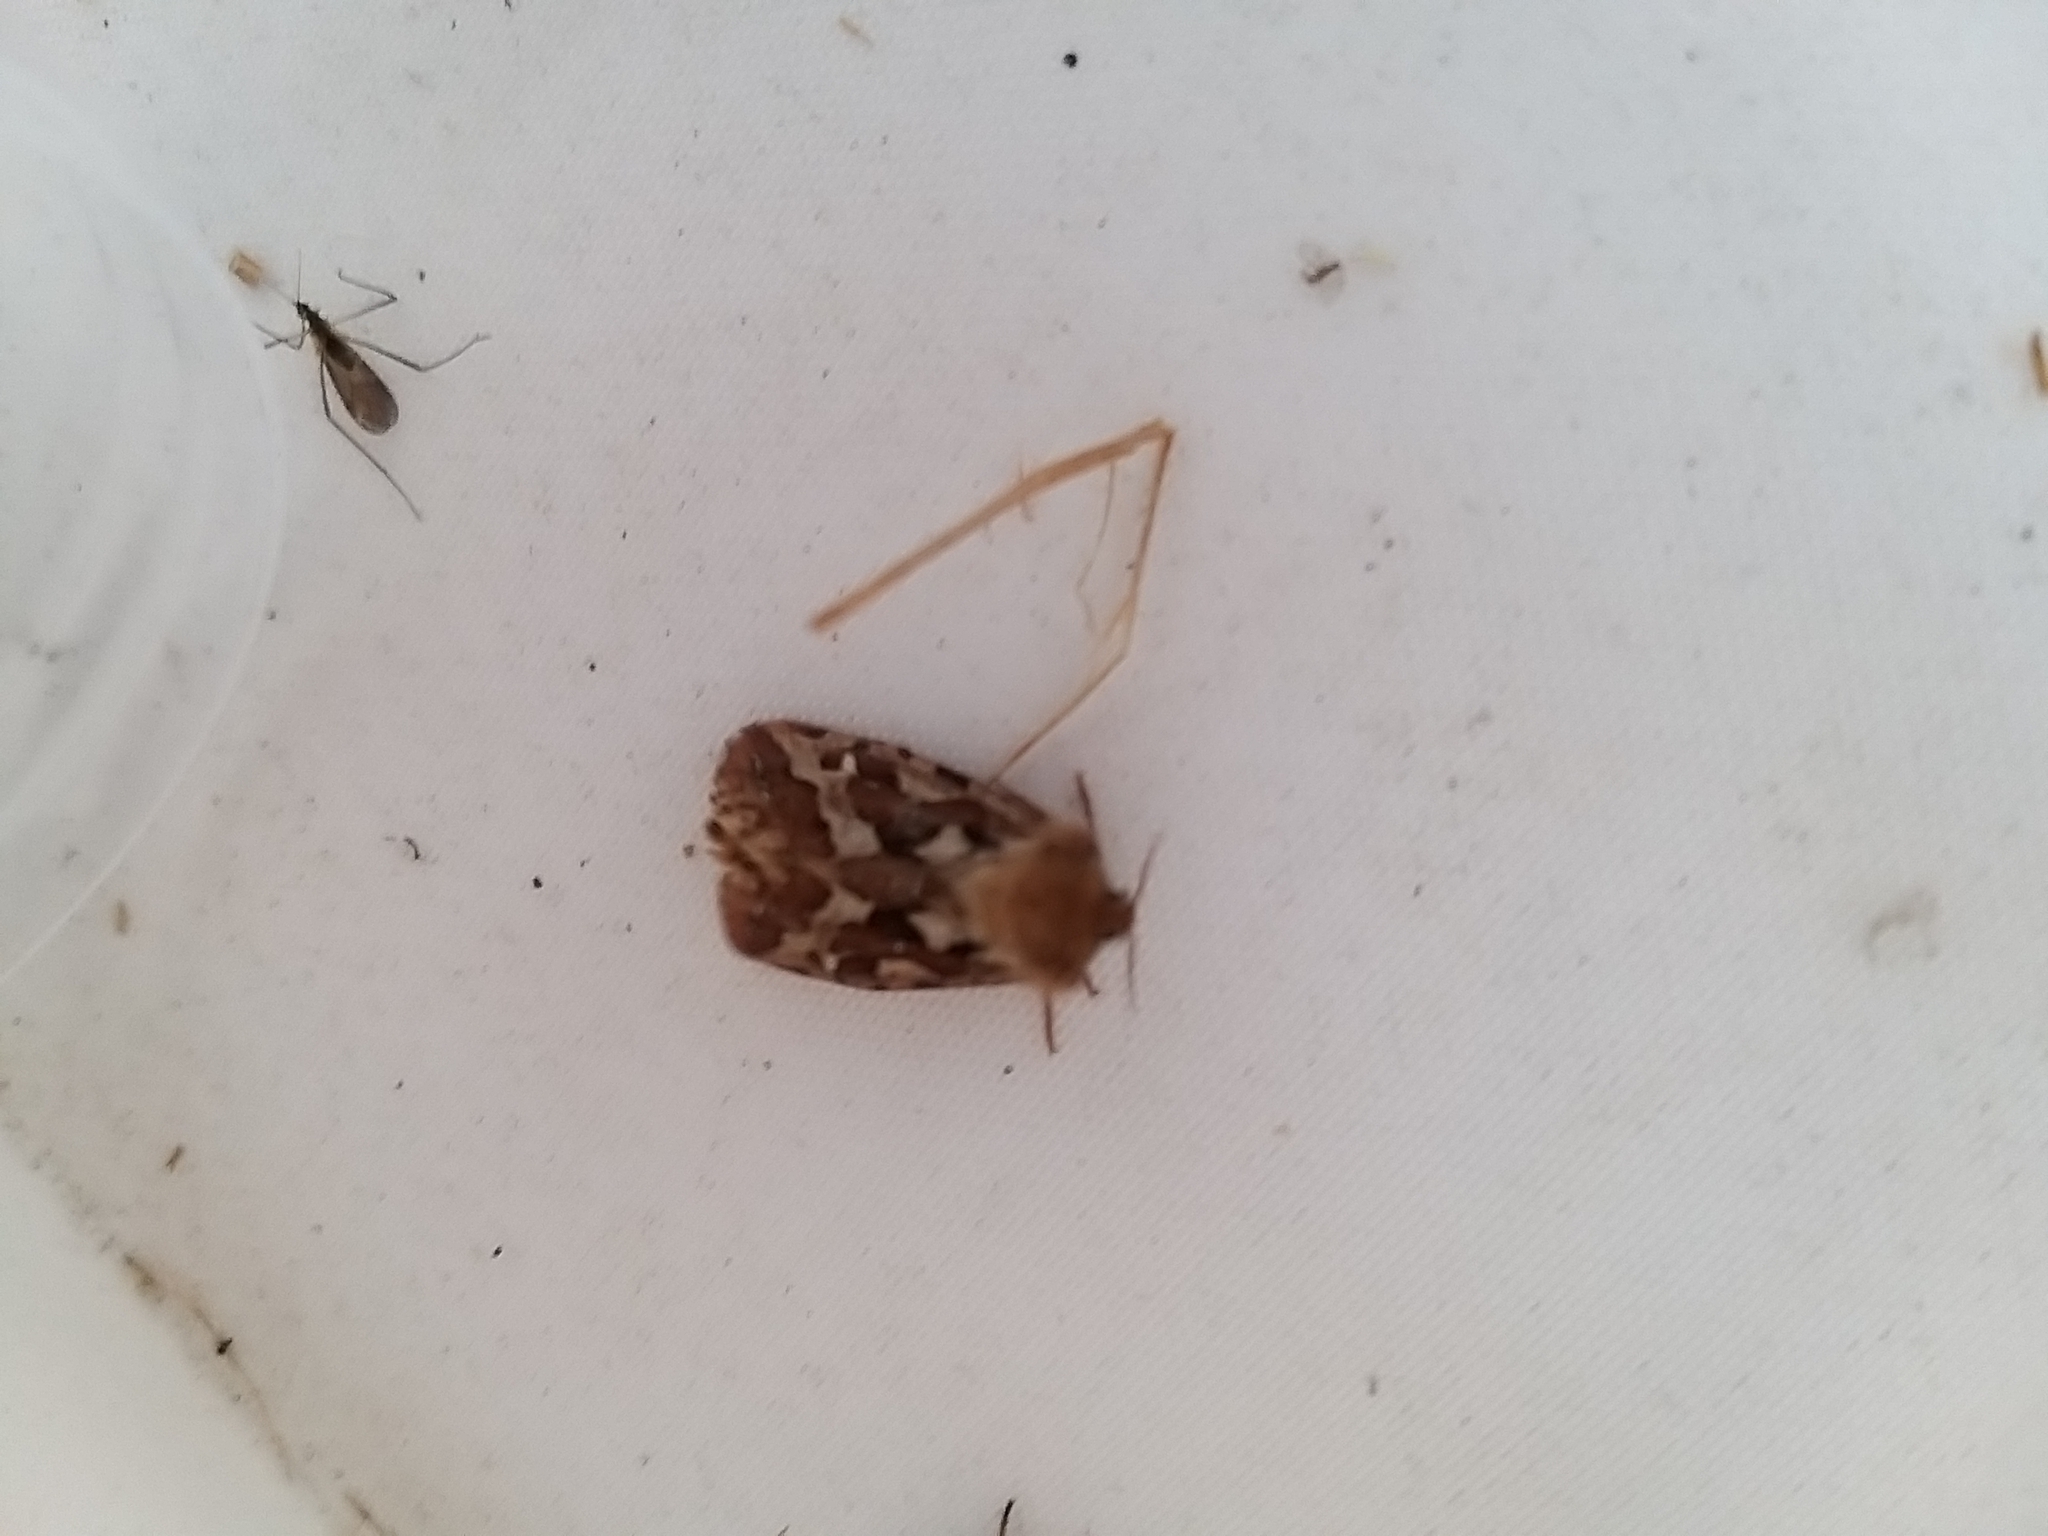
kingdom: Animalia
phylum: Arthropoda
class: Insecta
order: Lepidoptera
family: Hepialidae
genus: Korscheltellus
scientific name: Korscheltellus fusconebulosus
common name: Map-winged swift
